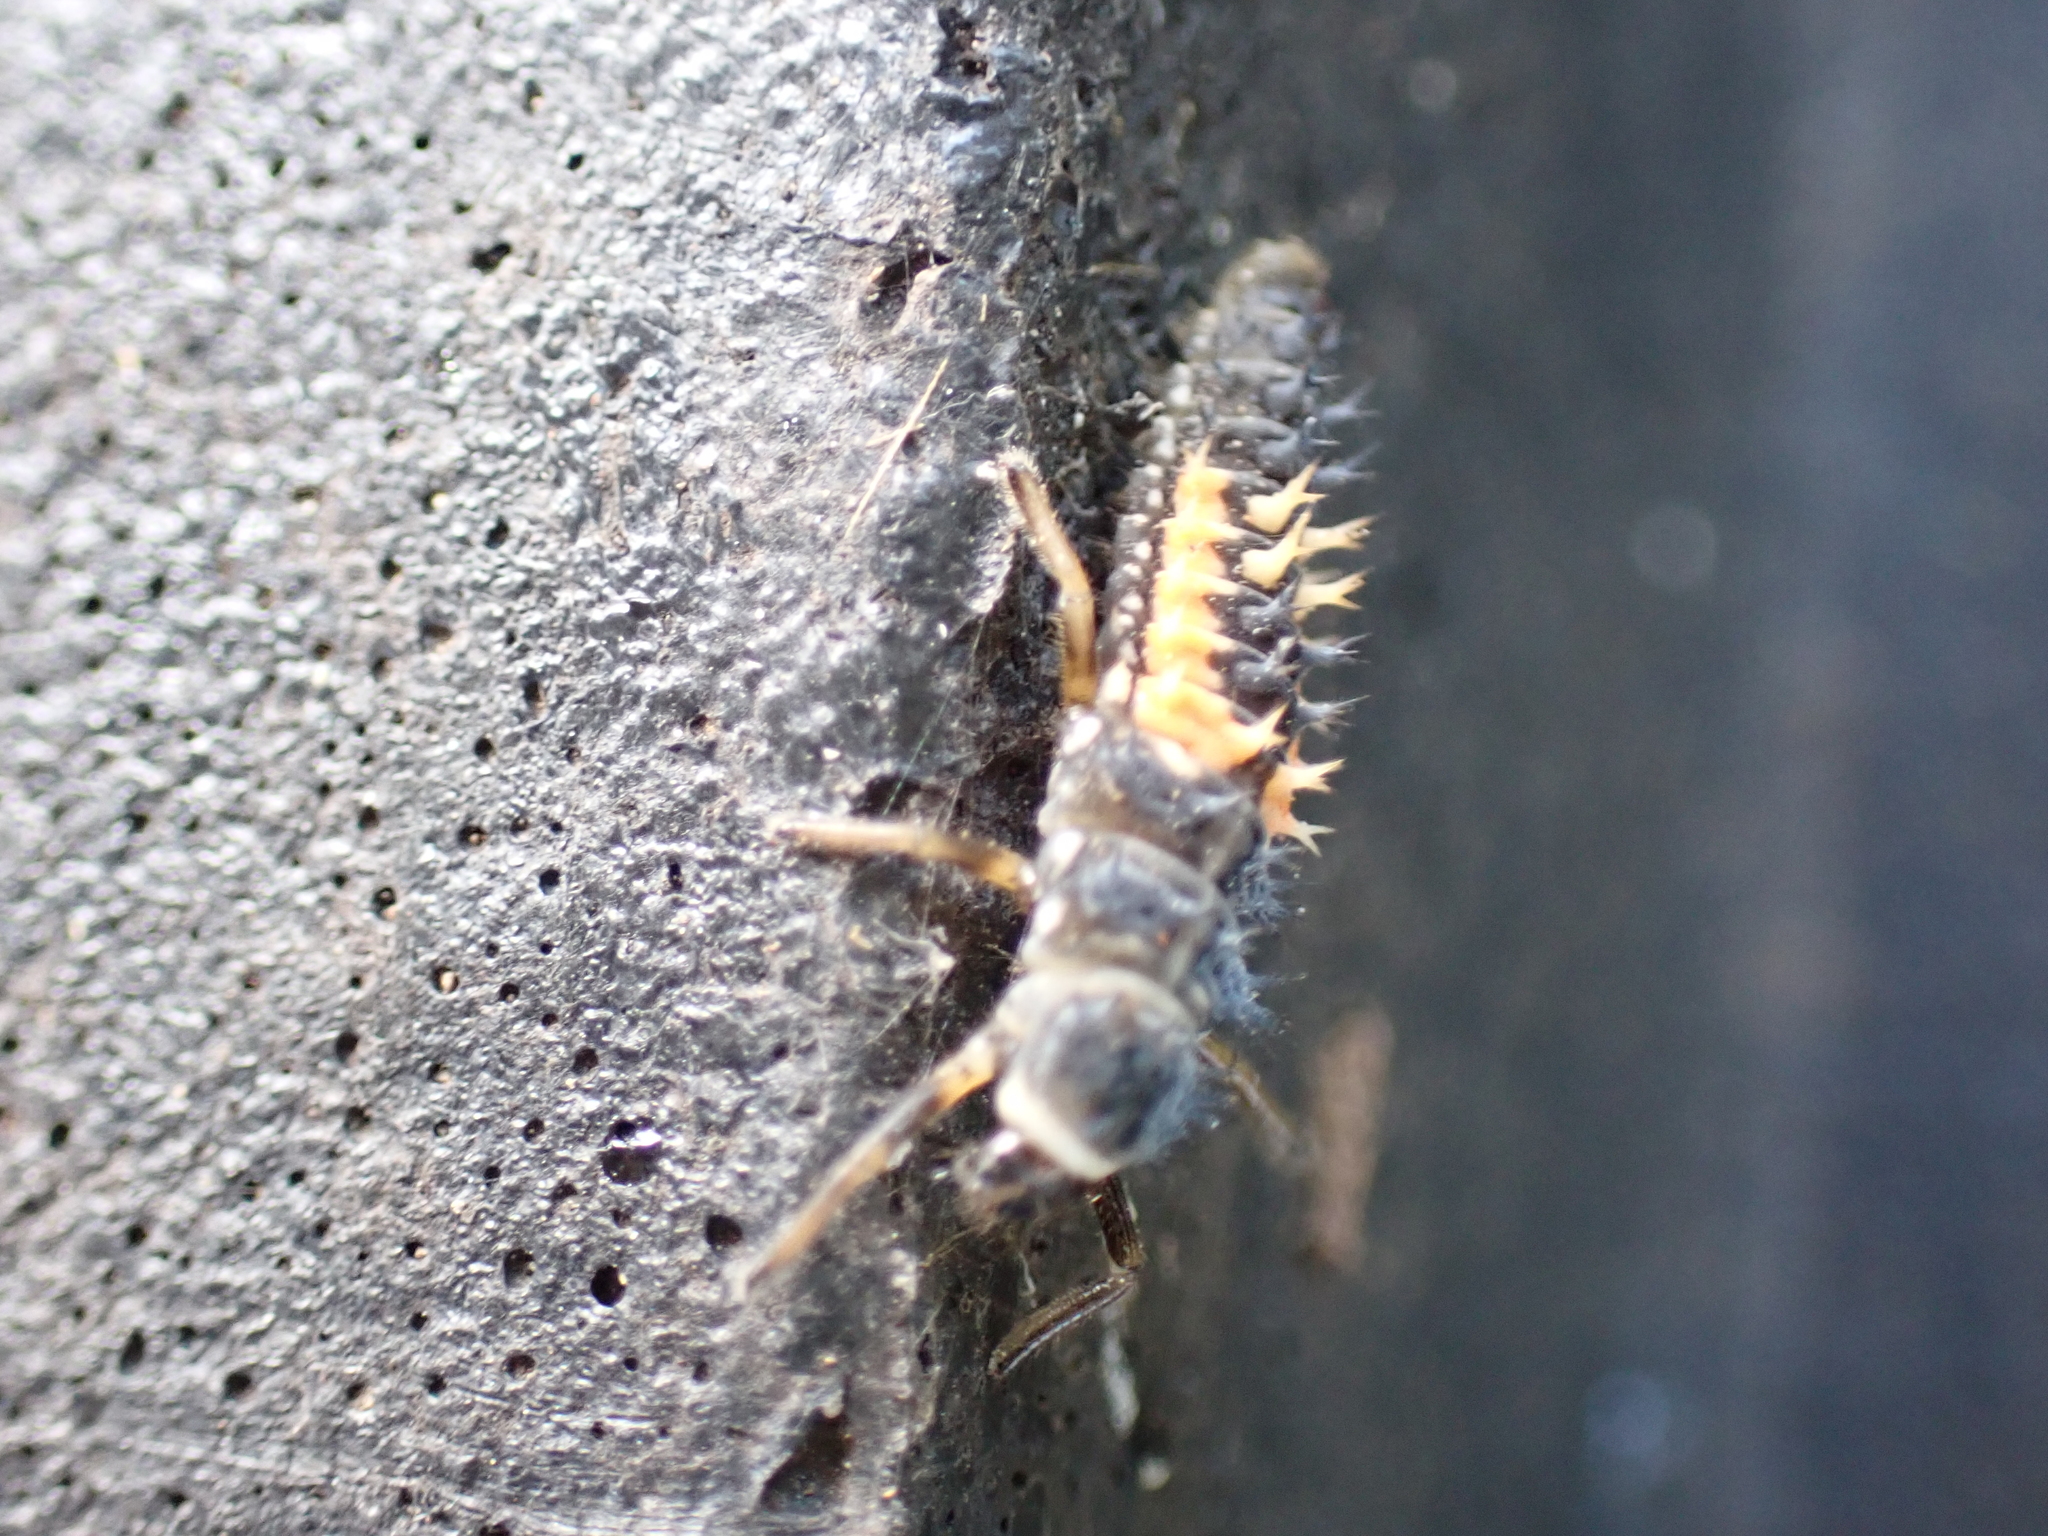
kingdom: Animalia
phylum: Arthropoda
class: Insecta
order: Coleoptera
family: Coccinellidae
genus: Harmonia
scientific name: Harmonia axyridis
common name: Harlequin ladybird
